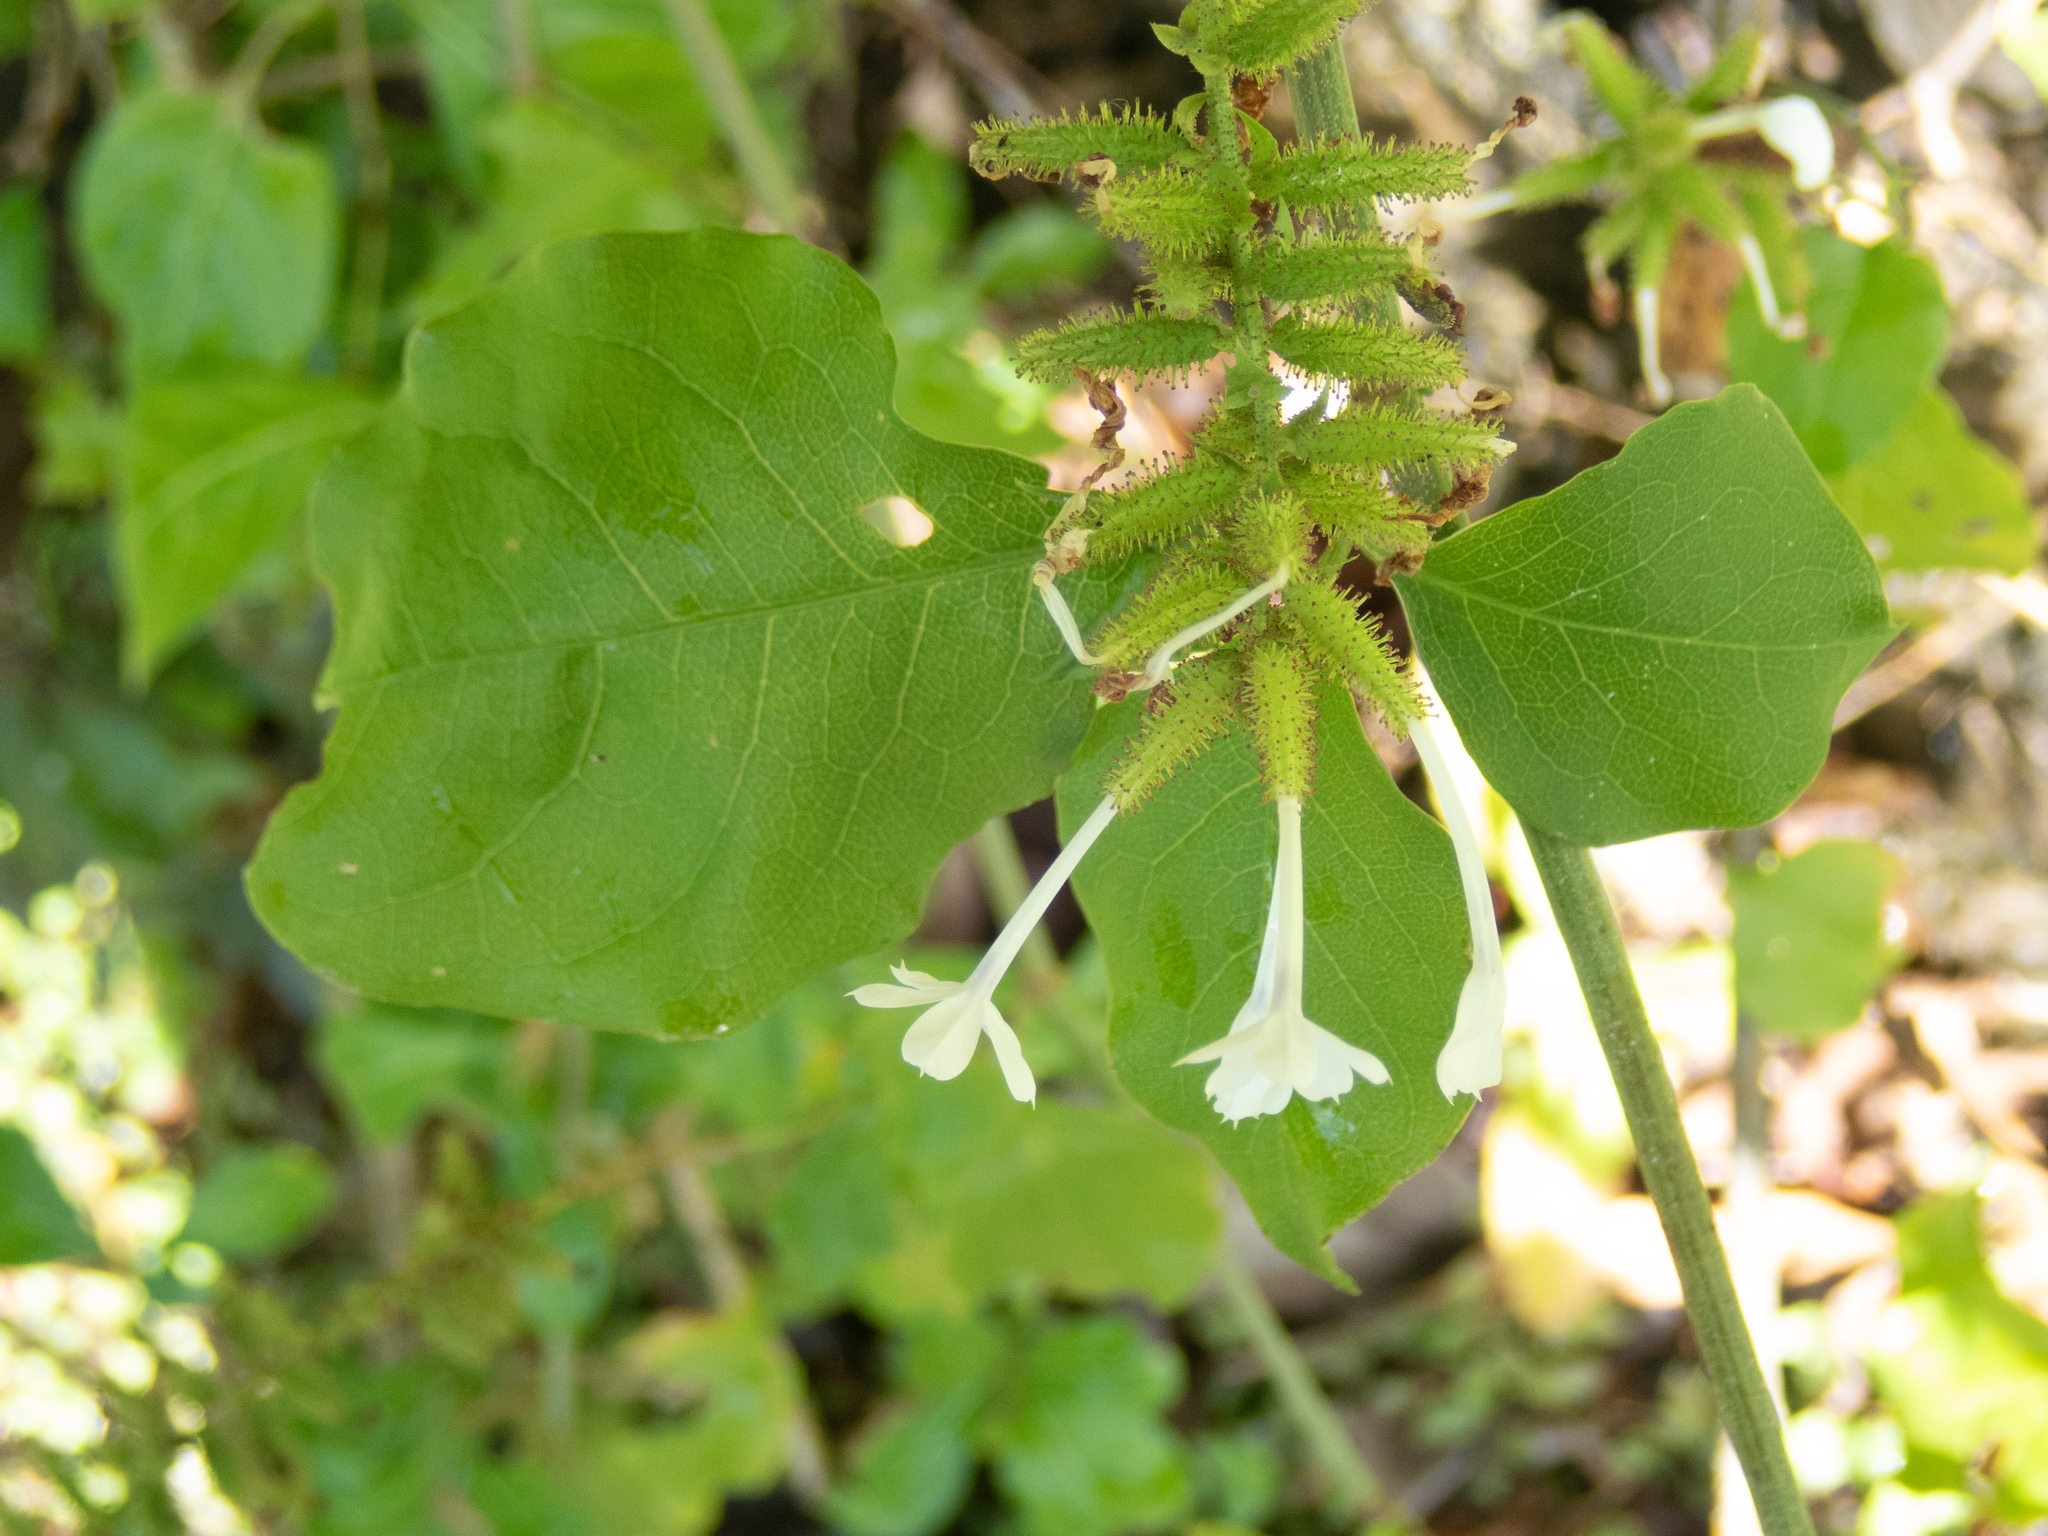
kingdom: Plantae
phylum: Tracheophyta
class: Magnoliopsida
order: Caryophyllales
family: Plumbaginaceae
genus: Plumbago
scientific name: Plumbago zeylanica
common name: Doctorbush
